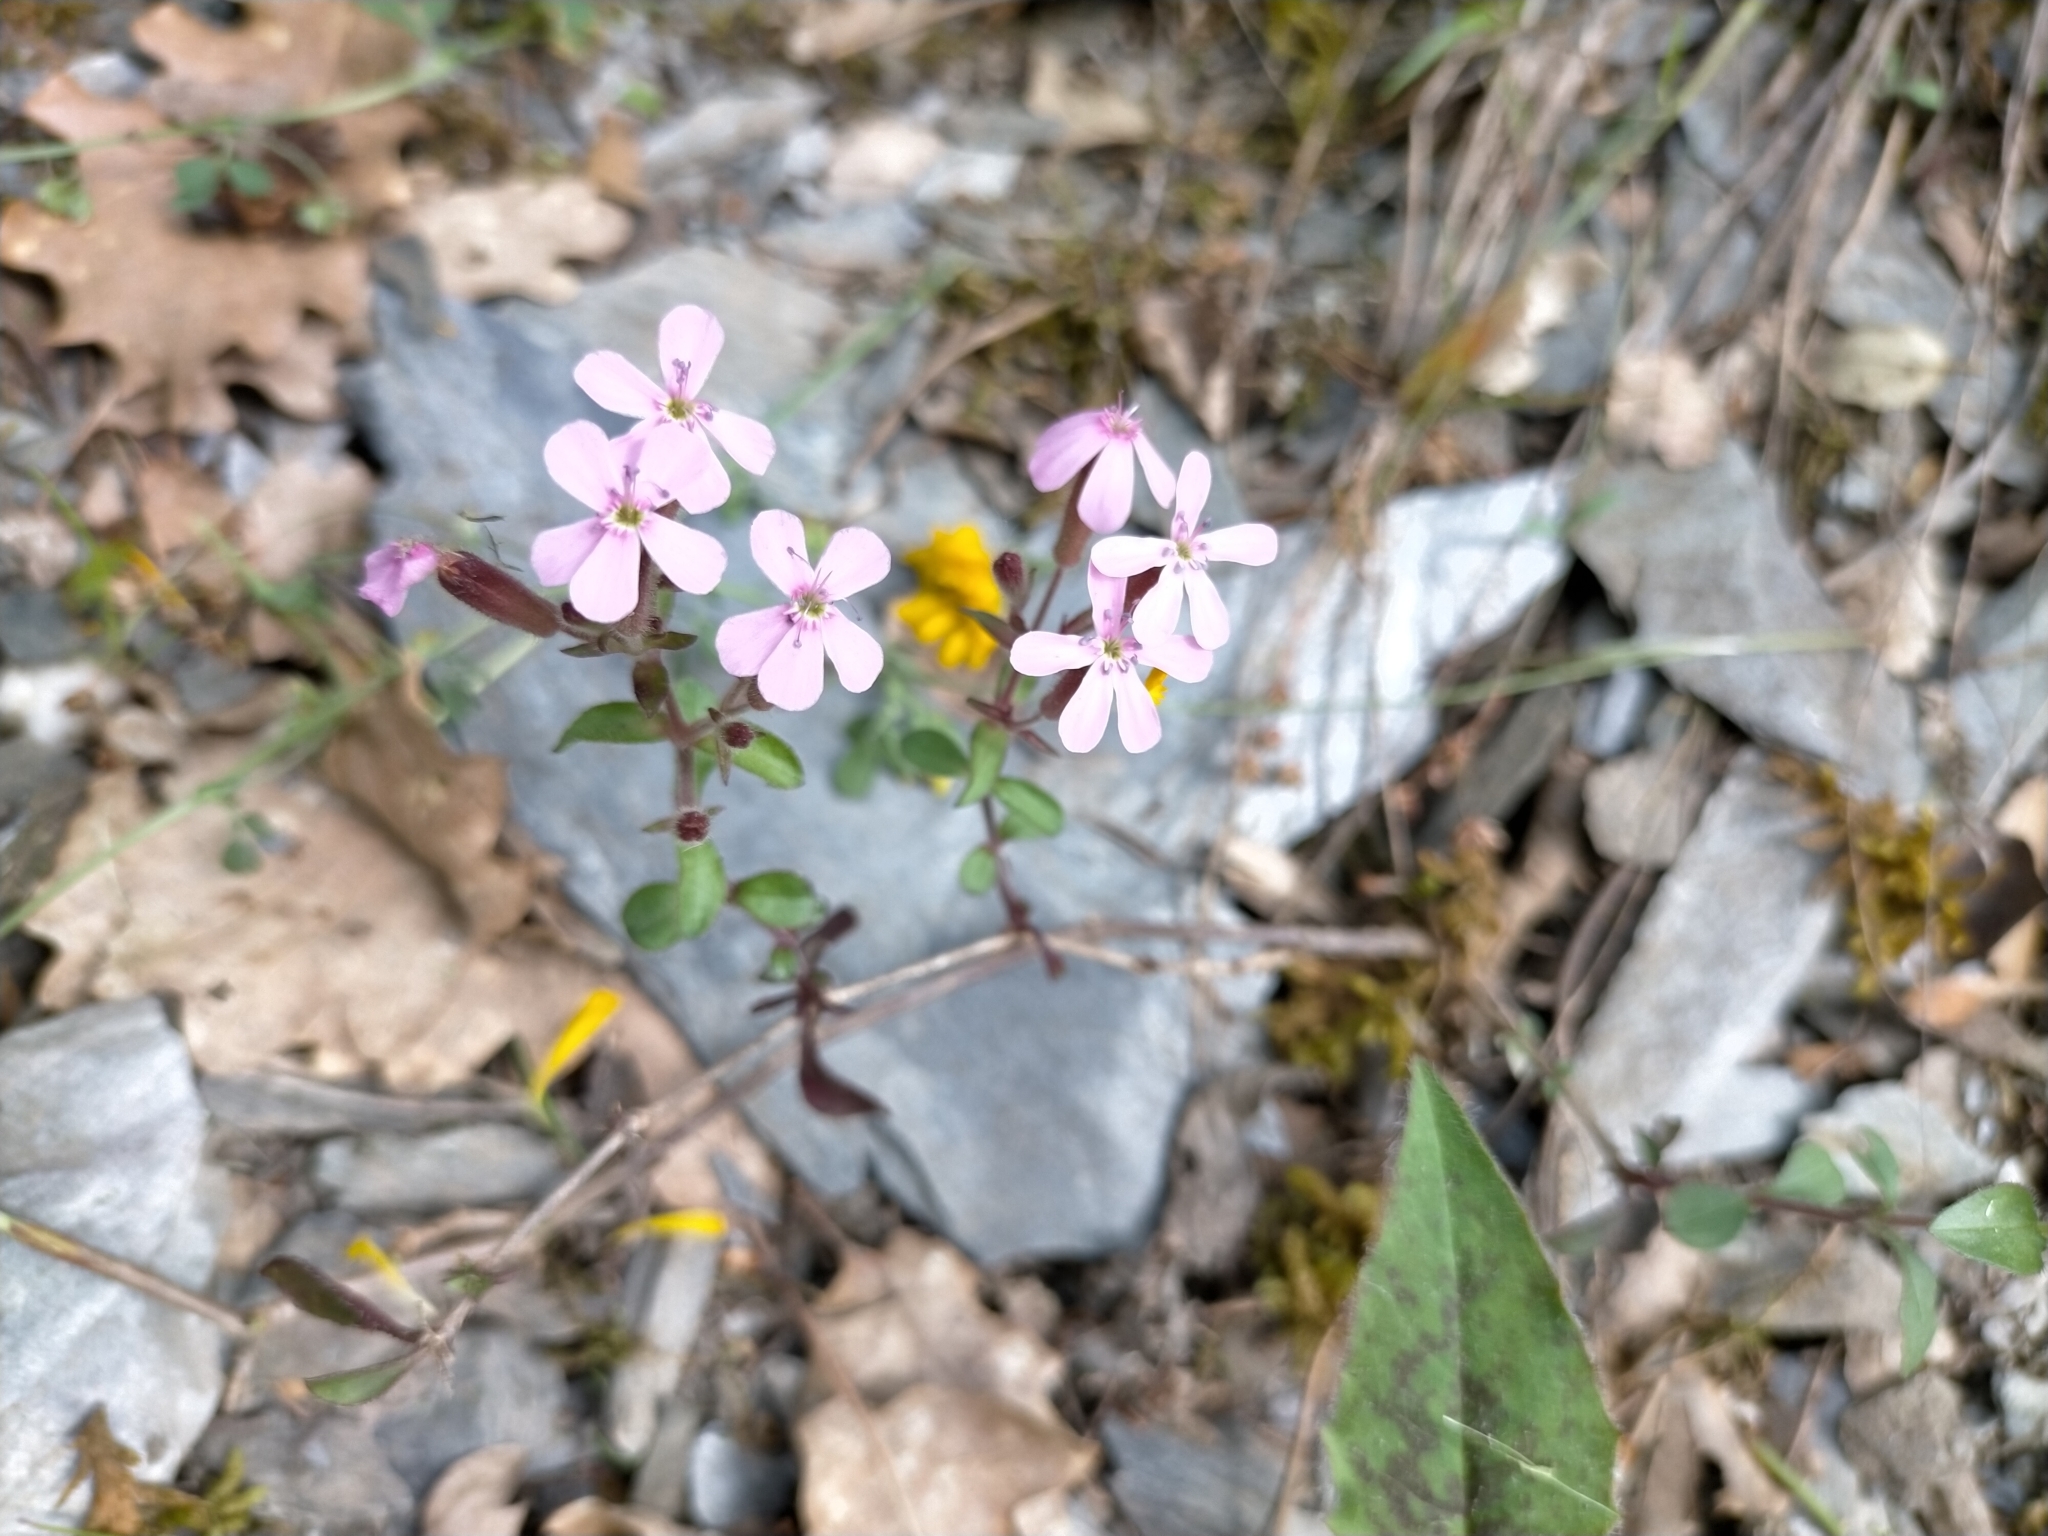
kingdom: Plantae
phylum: Tracheophyta
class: Magnoliopsida
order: Caryophyllales
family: Caryophyllaceae
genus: Saponaria
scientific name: Saponaria ocymoides
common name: Rock soapwort
